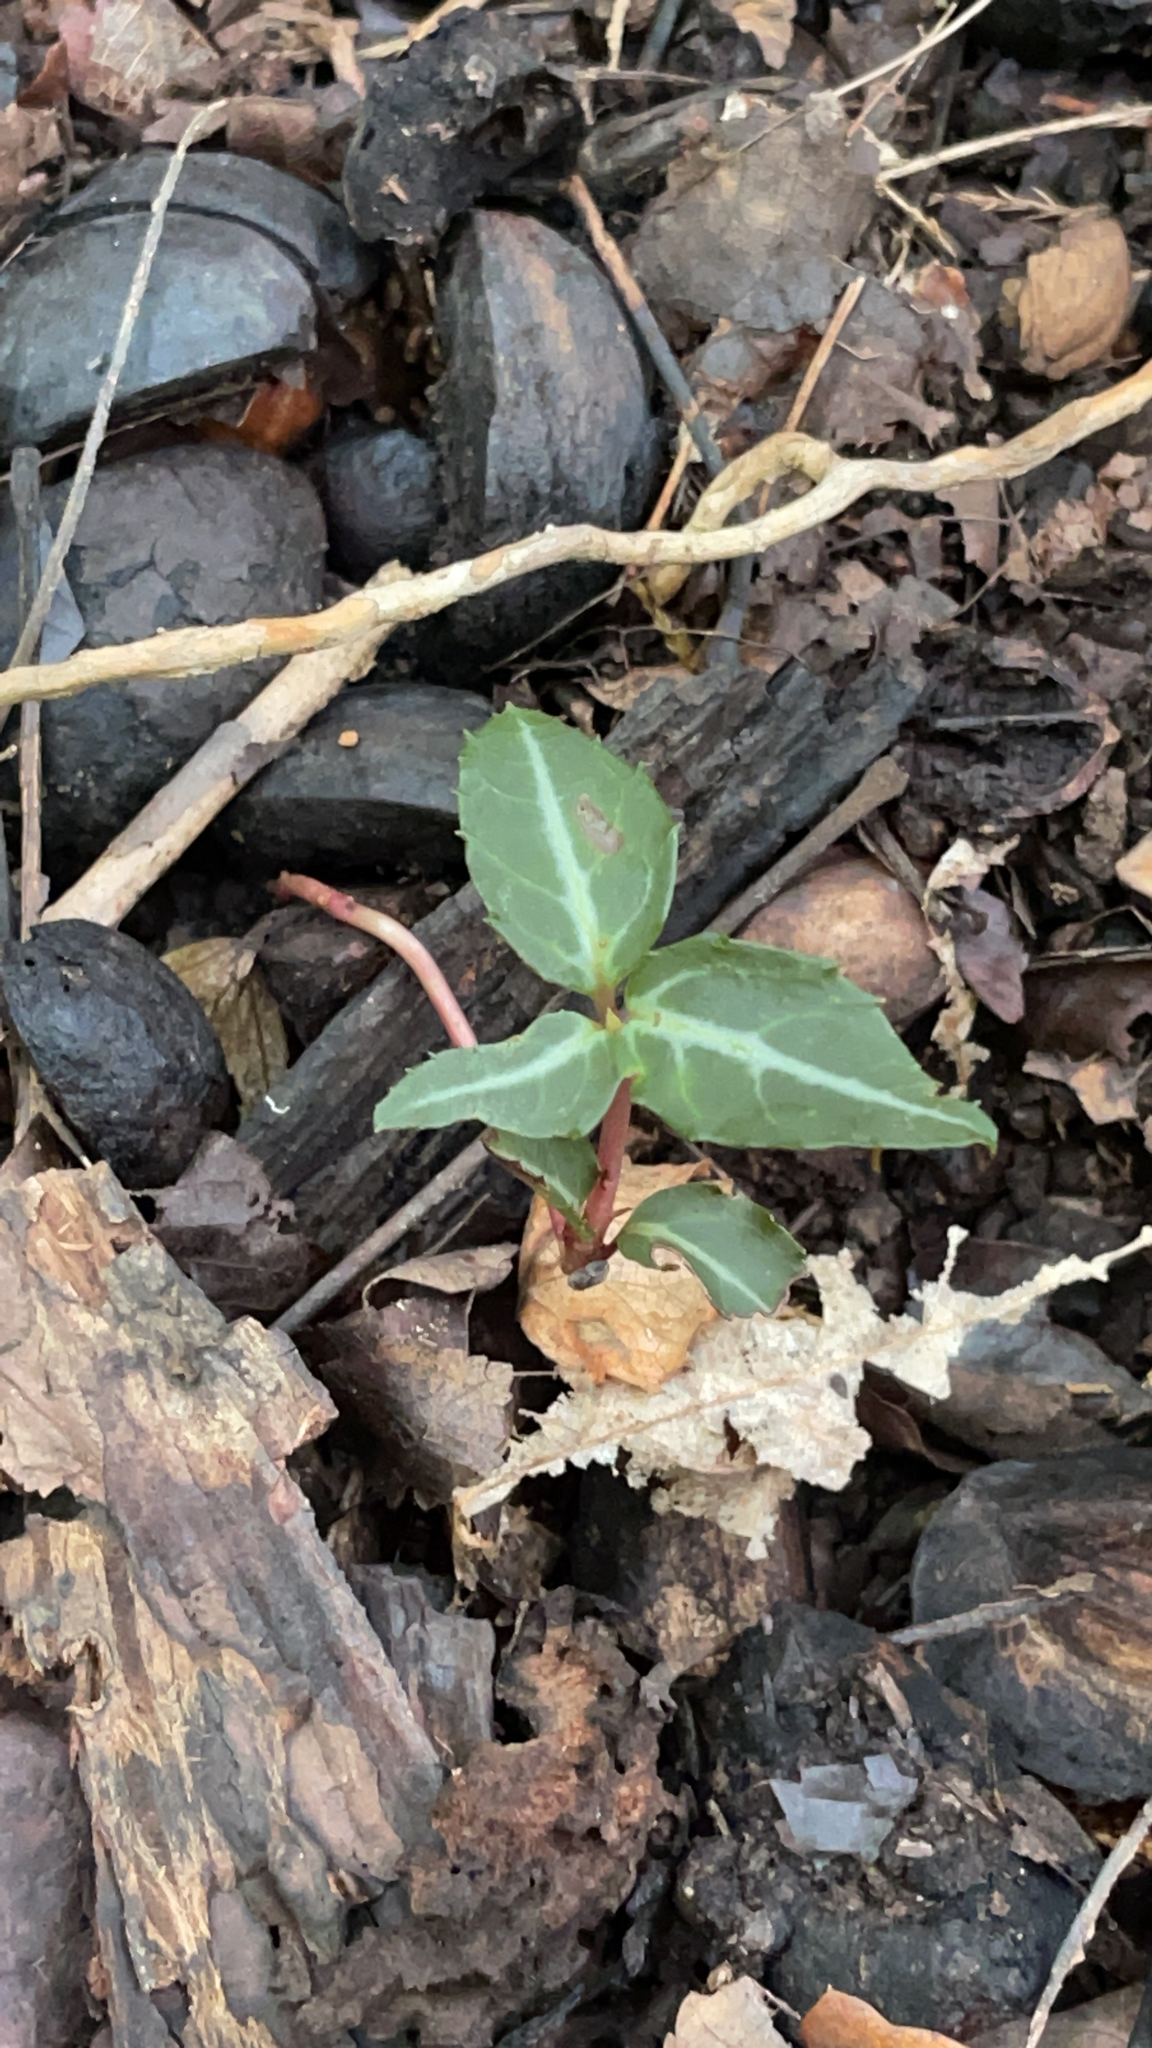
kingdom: Plantae
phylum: Tracheophyta
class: Magnoliopsida
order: Ericales
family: Ericaceae
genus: Chimaphila
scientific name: Chimaphila maculata
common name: Spotted pipsissewa
